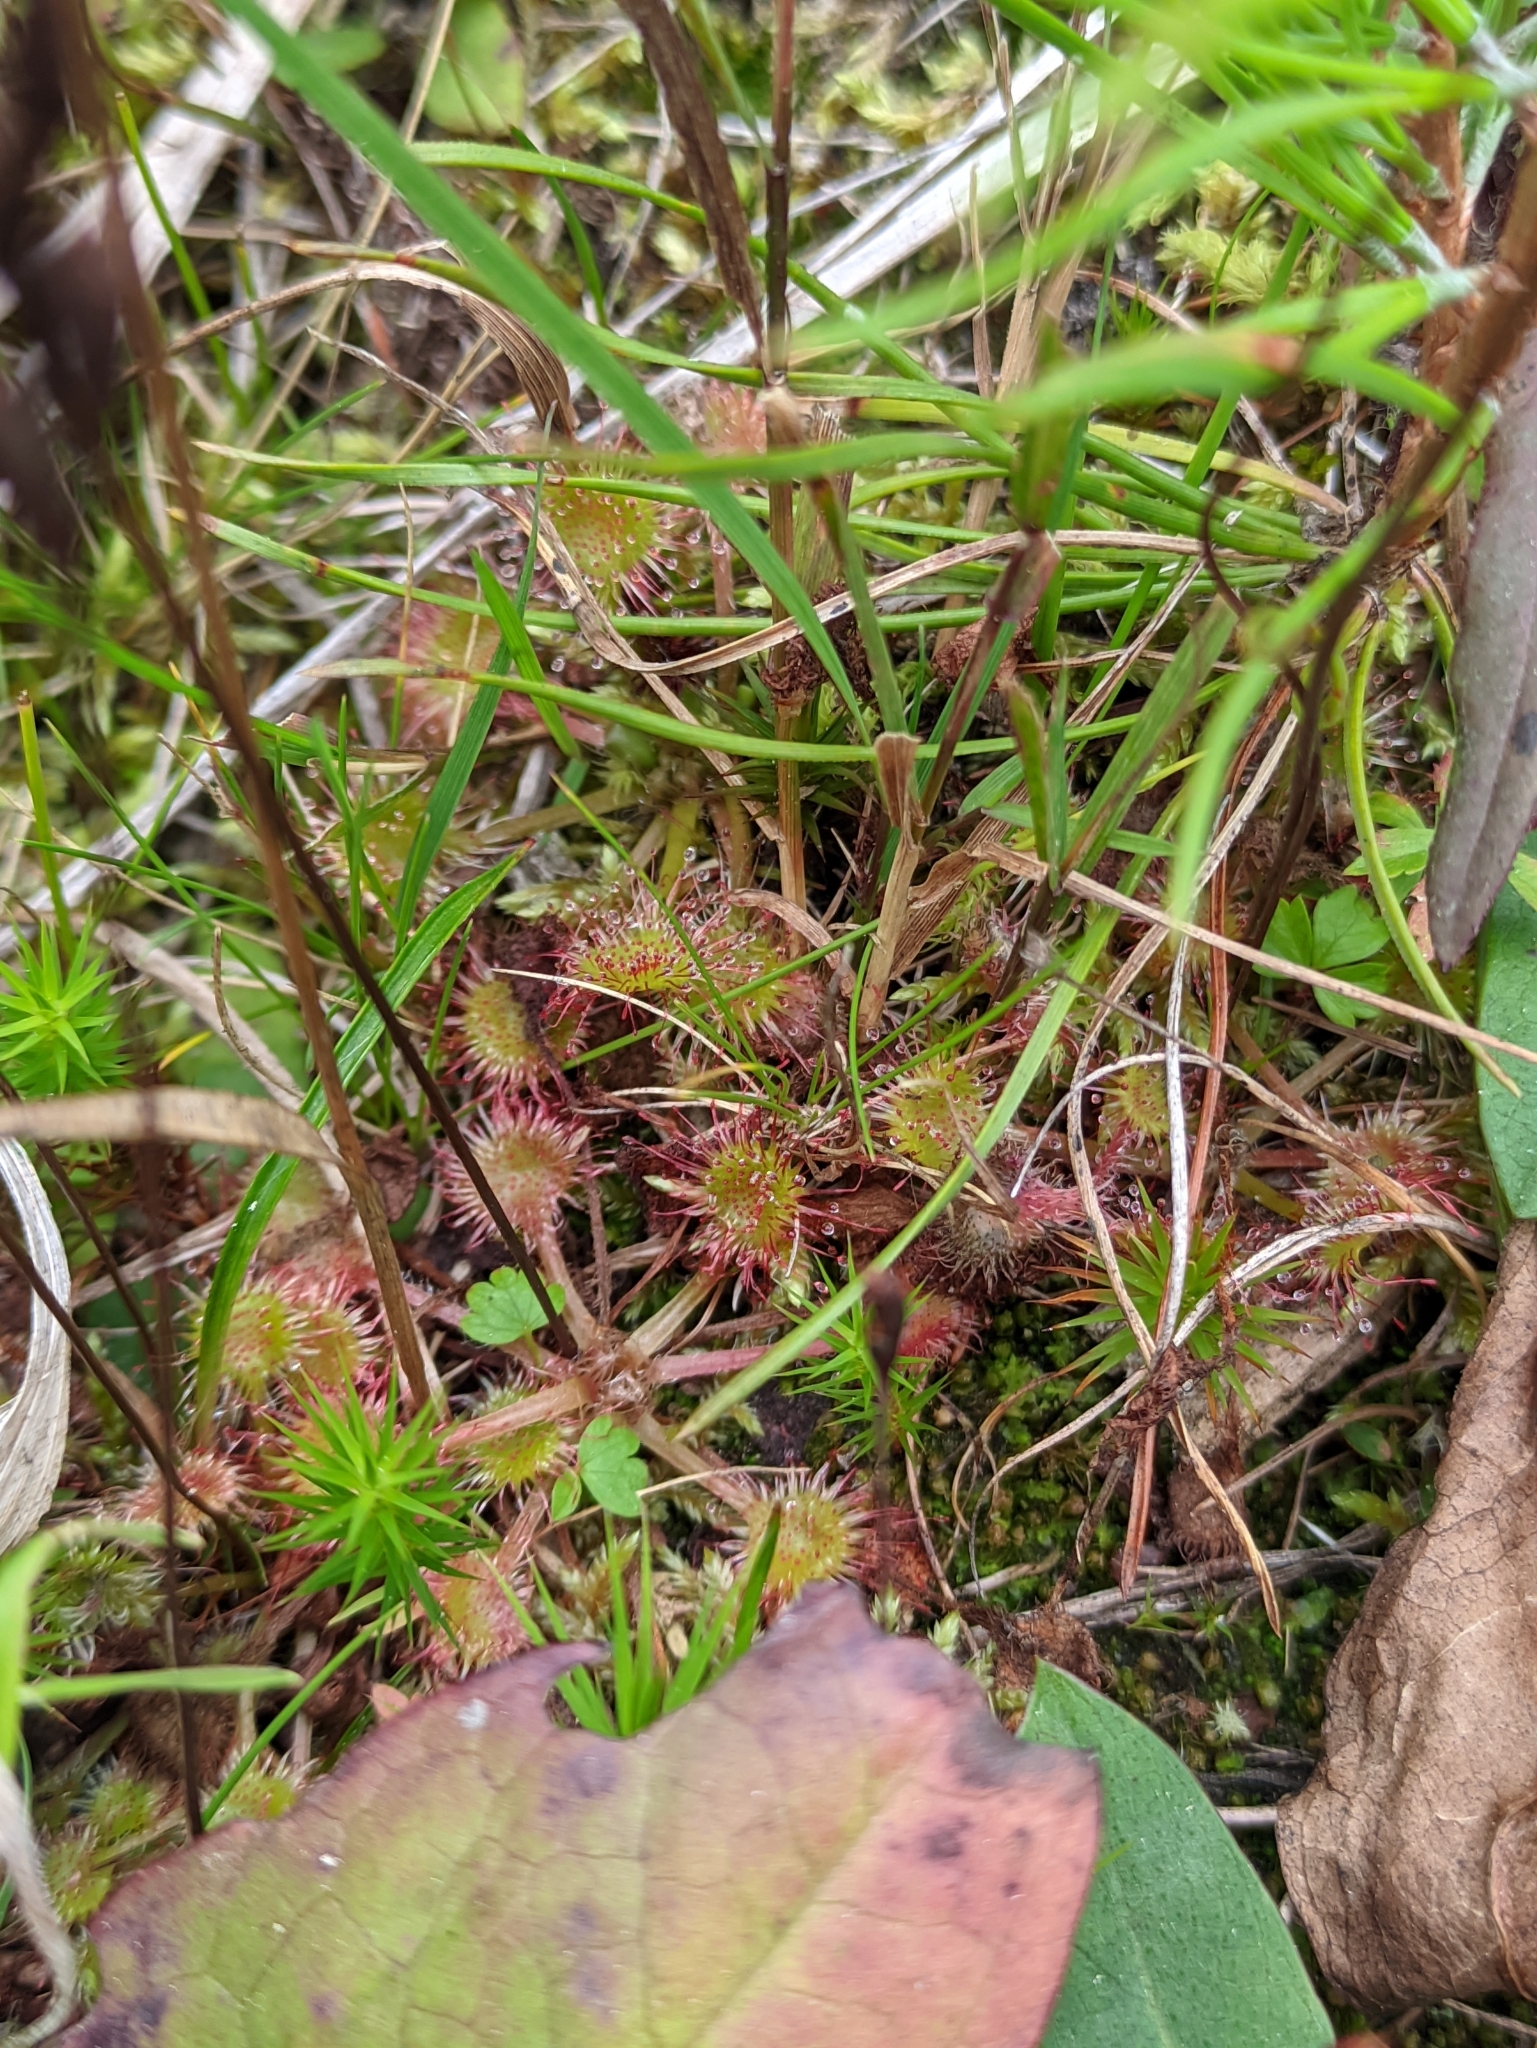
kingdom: Plantae
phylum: Tracheophyta
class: Magnoliopsida
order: Caryophyllales
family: Droseraceae
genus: Drosera
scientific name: Drosera rotundifolia
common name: Round-leaved sundew
